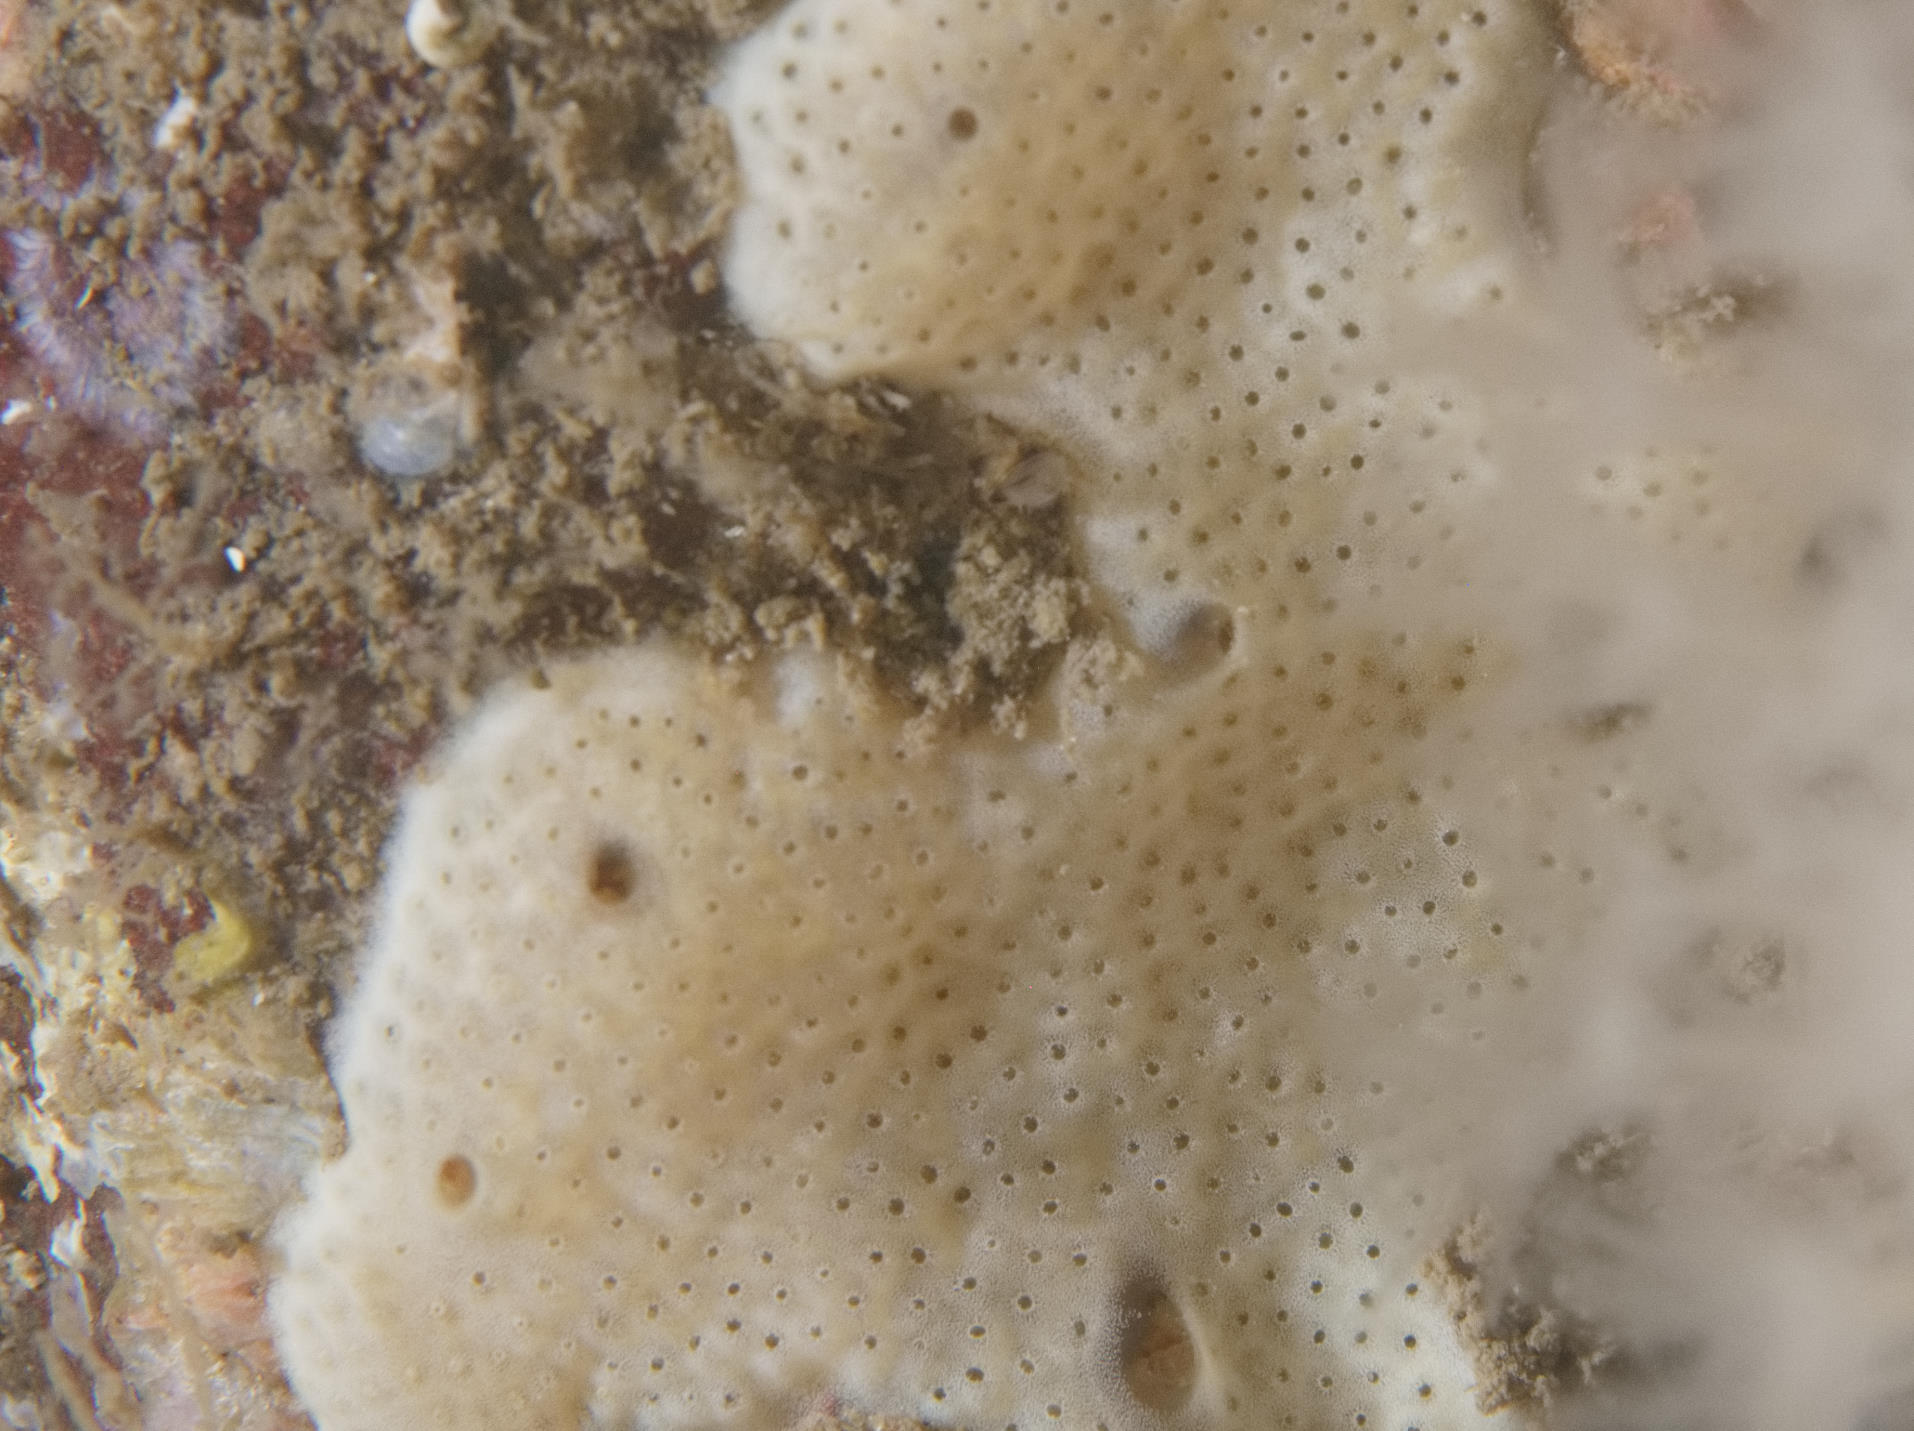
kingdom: Animalia
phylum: Chordata
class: Ascidiacea
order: Aplousobranchia
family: Didemnidae
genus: Lissoclinum
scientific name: Lissoclinum perforatum
